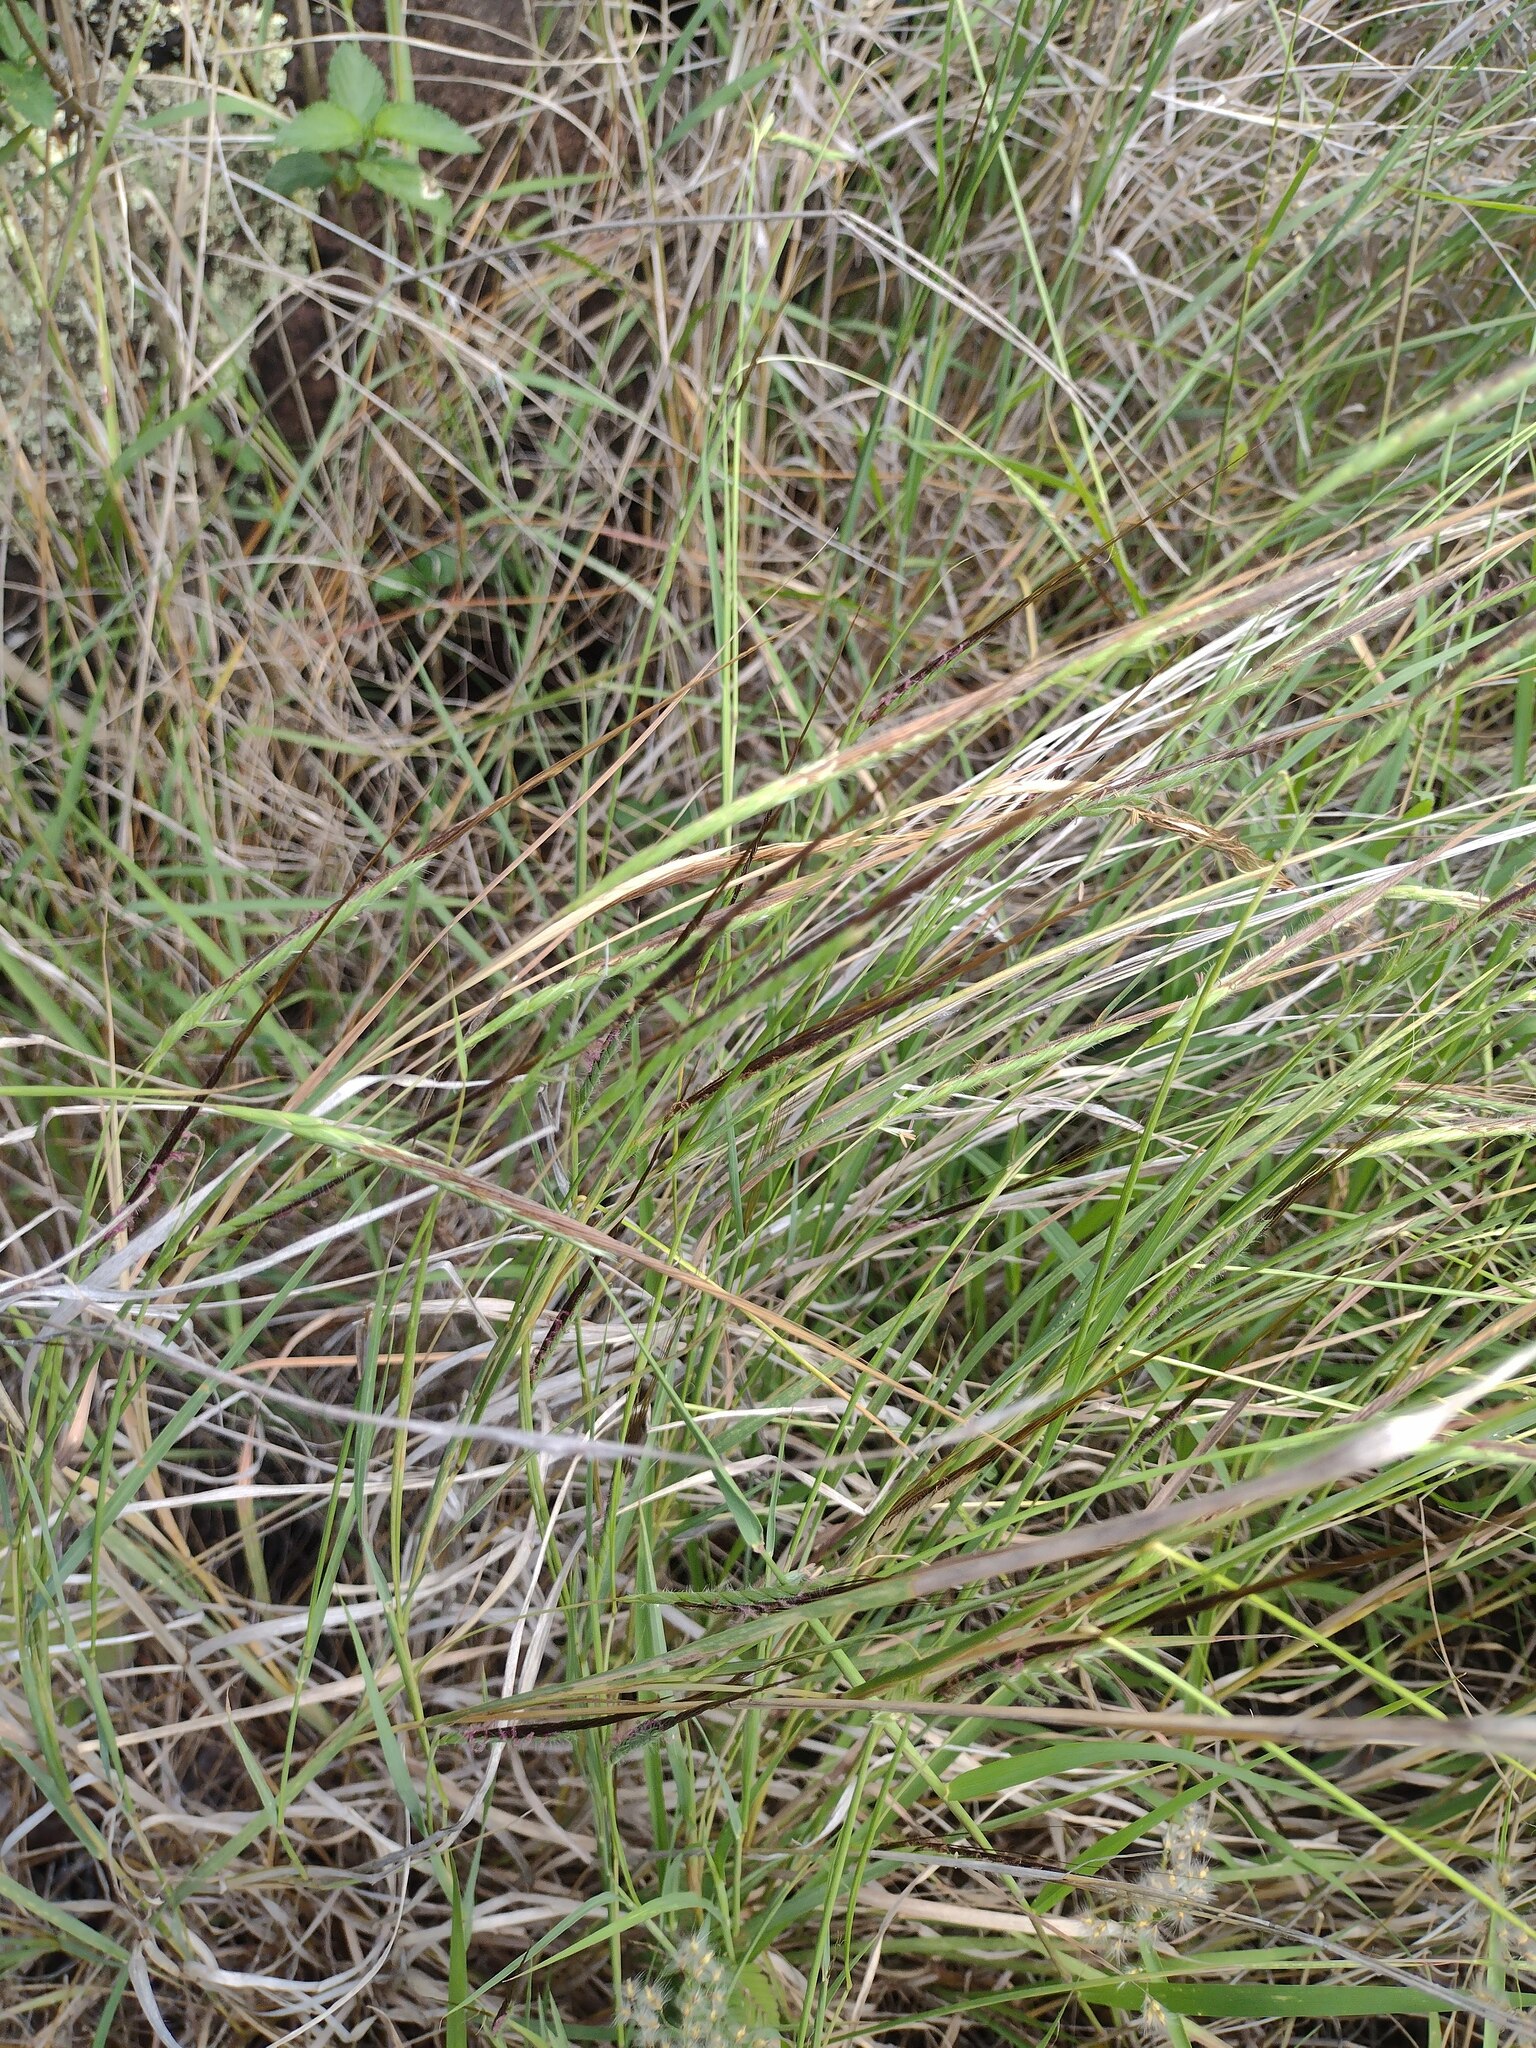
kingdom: Plantae
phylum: Tracheophyta
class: Liliopsida
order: Poales
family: Poaceae
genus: Heteropogon
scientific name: Heteropogon contortus
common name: Tanglehead
